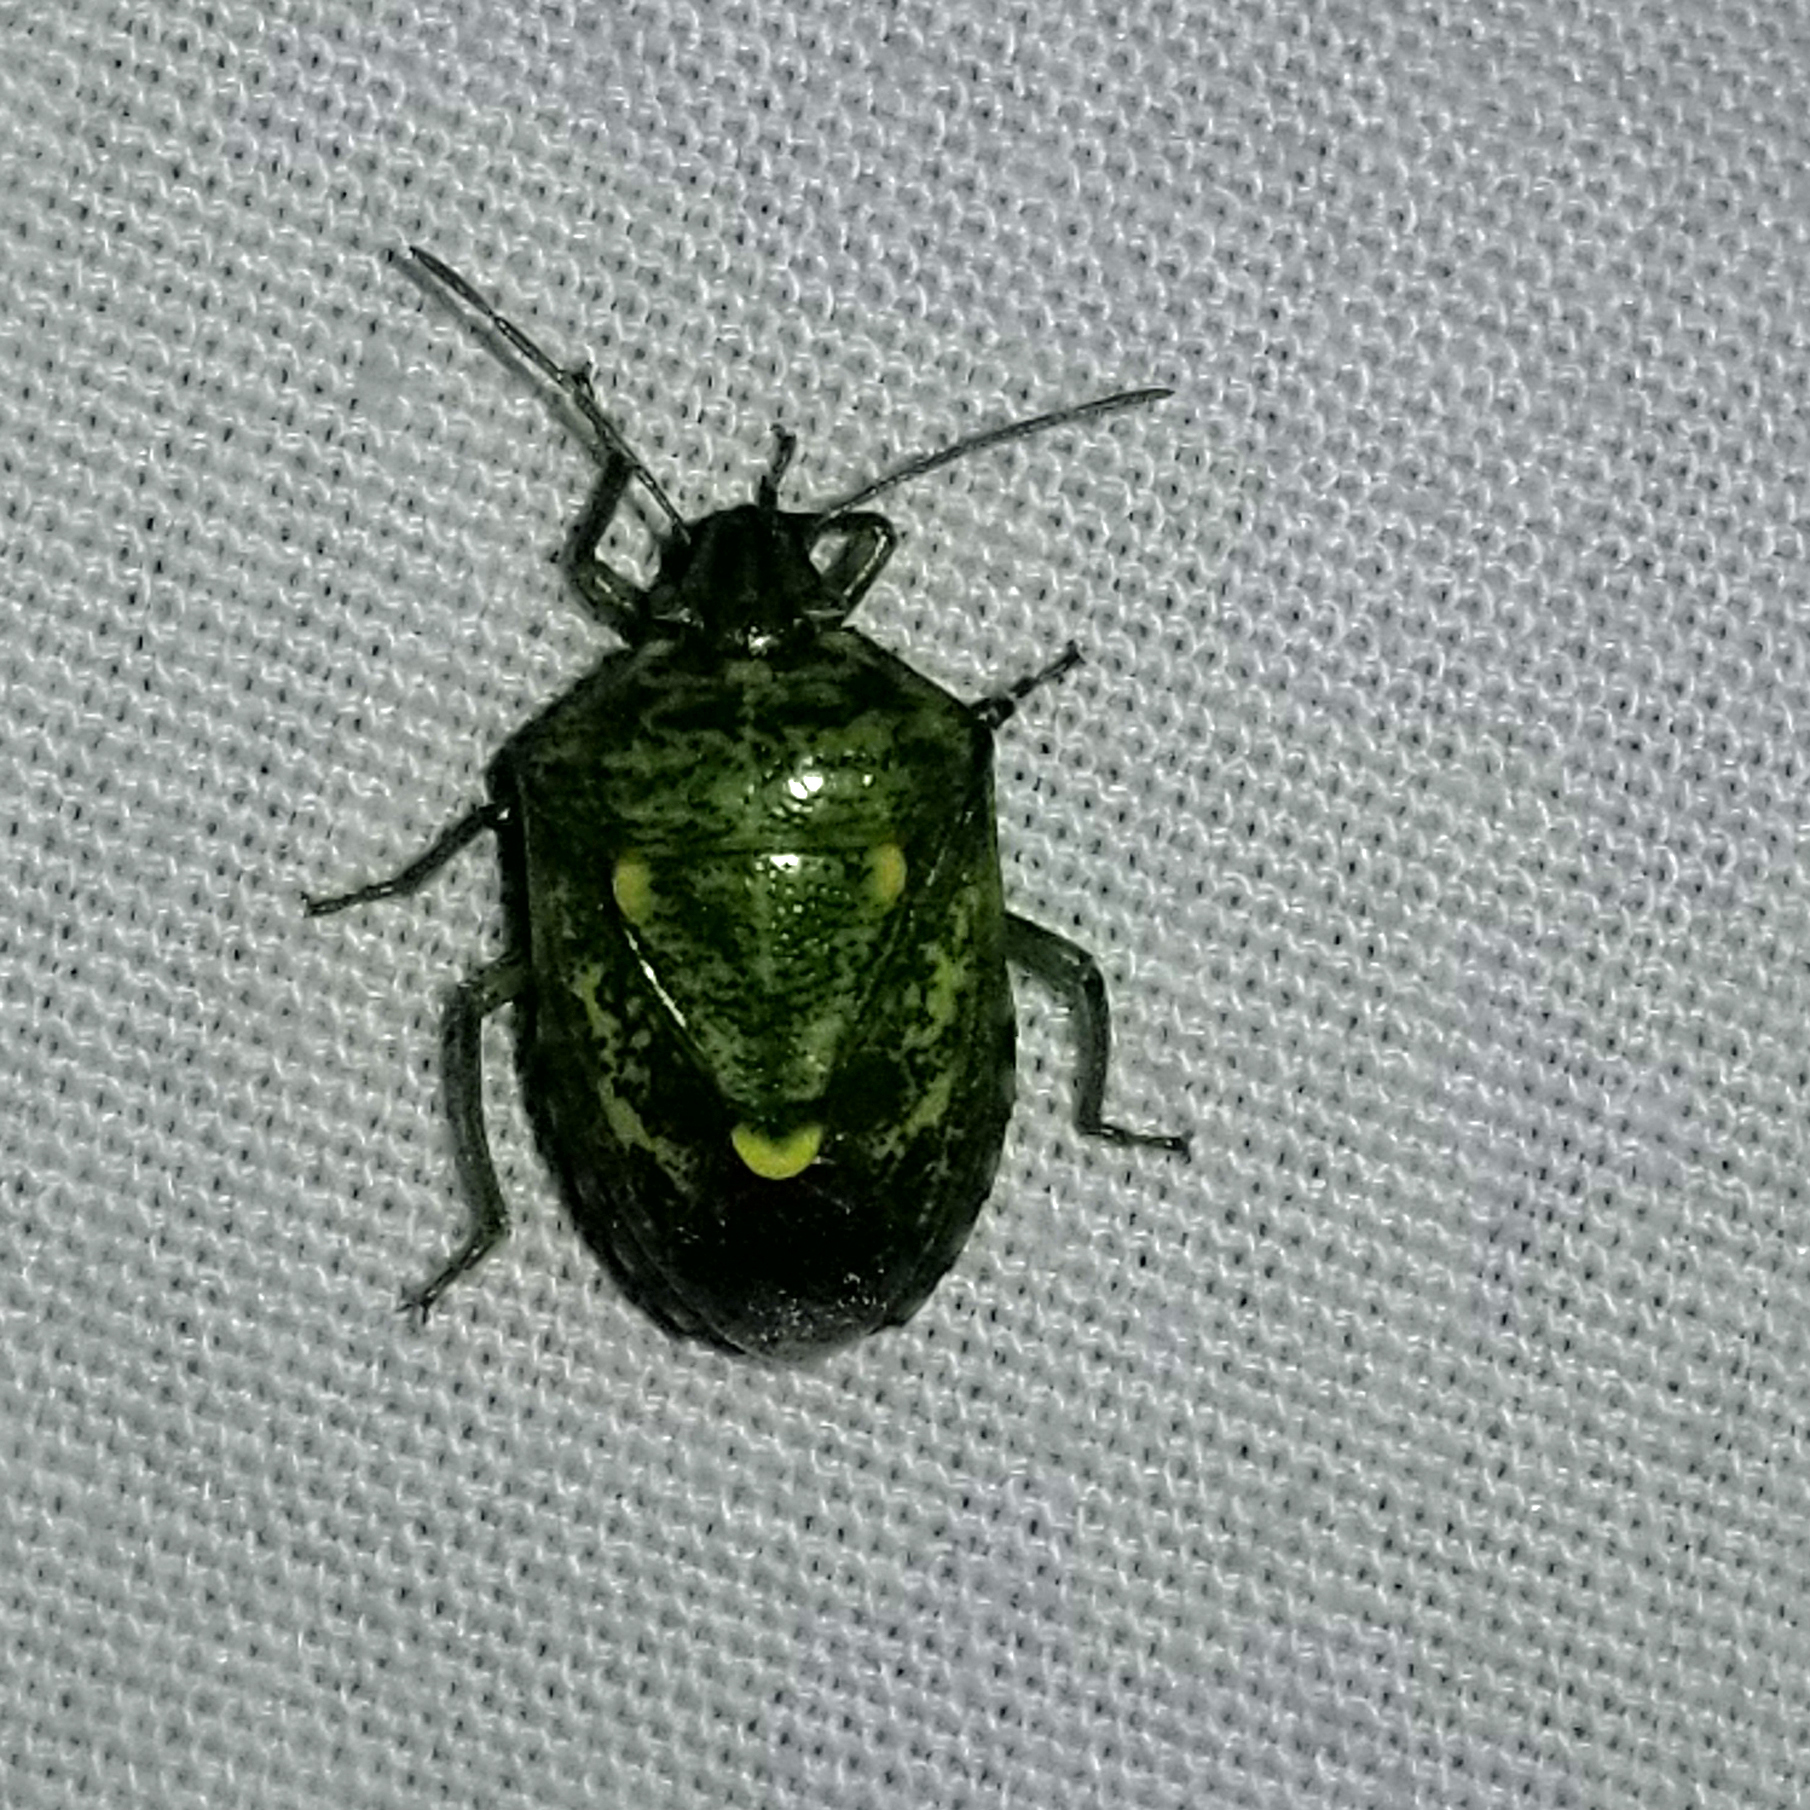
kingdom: Animalia
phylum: Arthropoda
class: Insecta
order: Hemiptera
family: Pentatomidae
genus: Banasa
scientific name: Banasa euchlora
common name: Cedar berry bug
